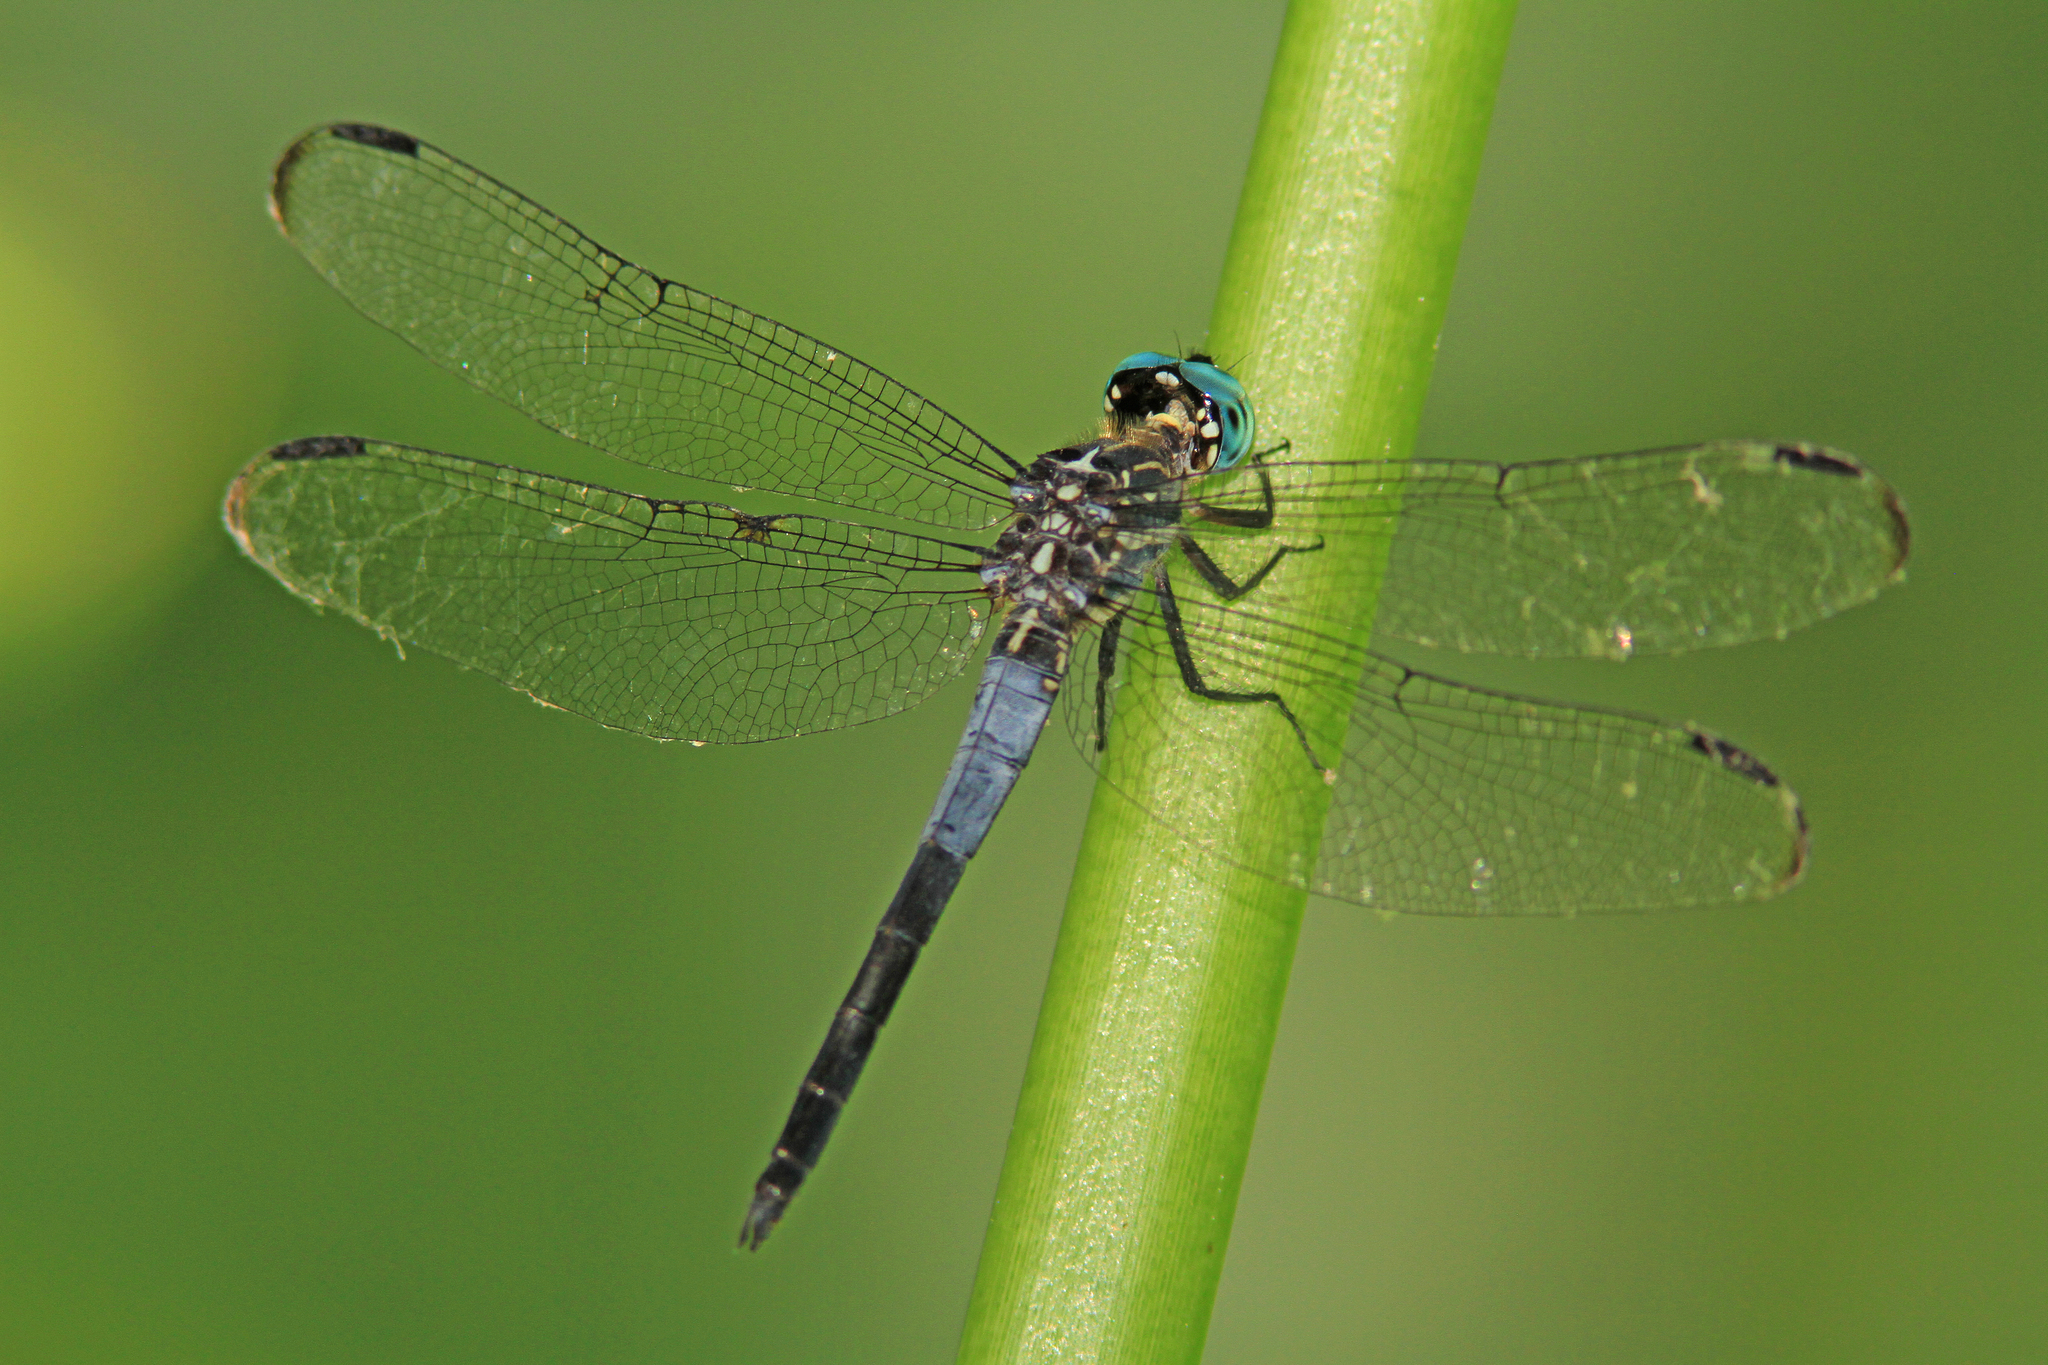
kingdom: Animalia
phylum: Arthropoda
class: Insecta
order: Odonata
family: Libellulidae
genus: Cannaphila
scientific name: Cannaphila insularis
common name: Gray-waisted skimmer
